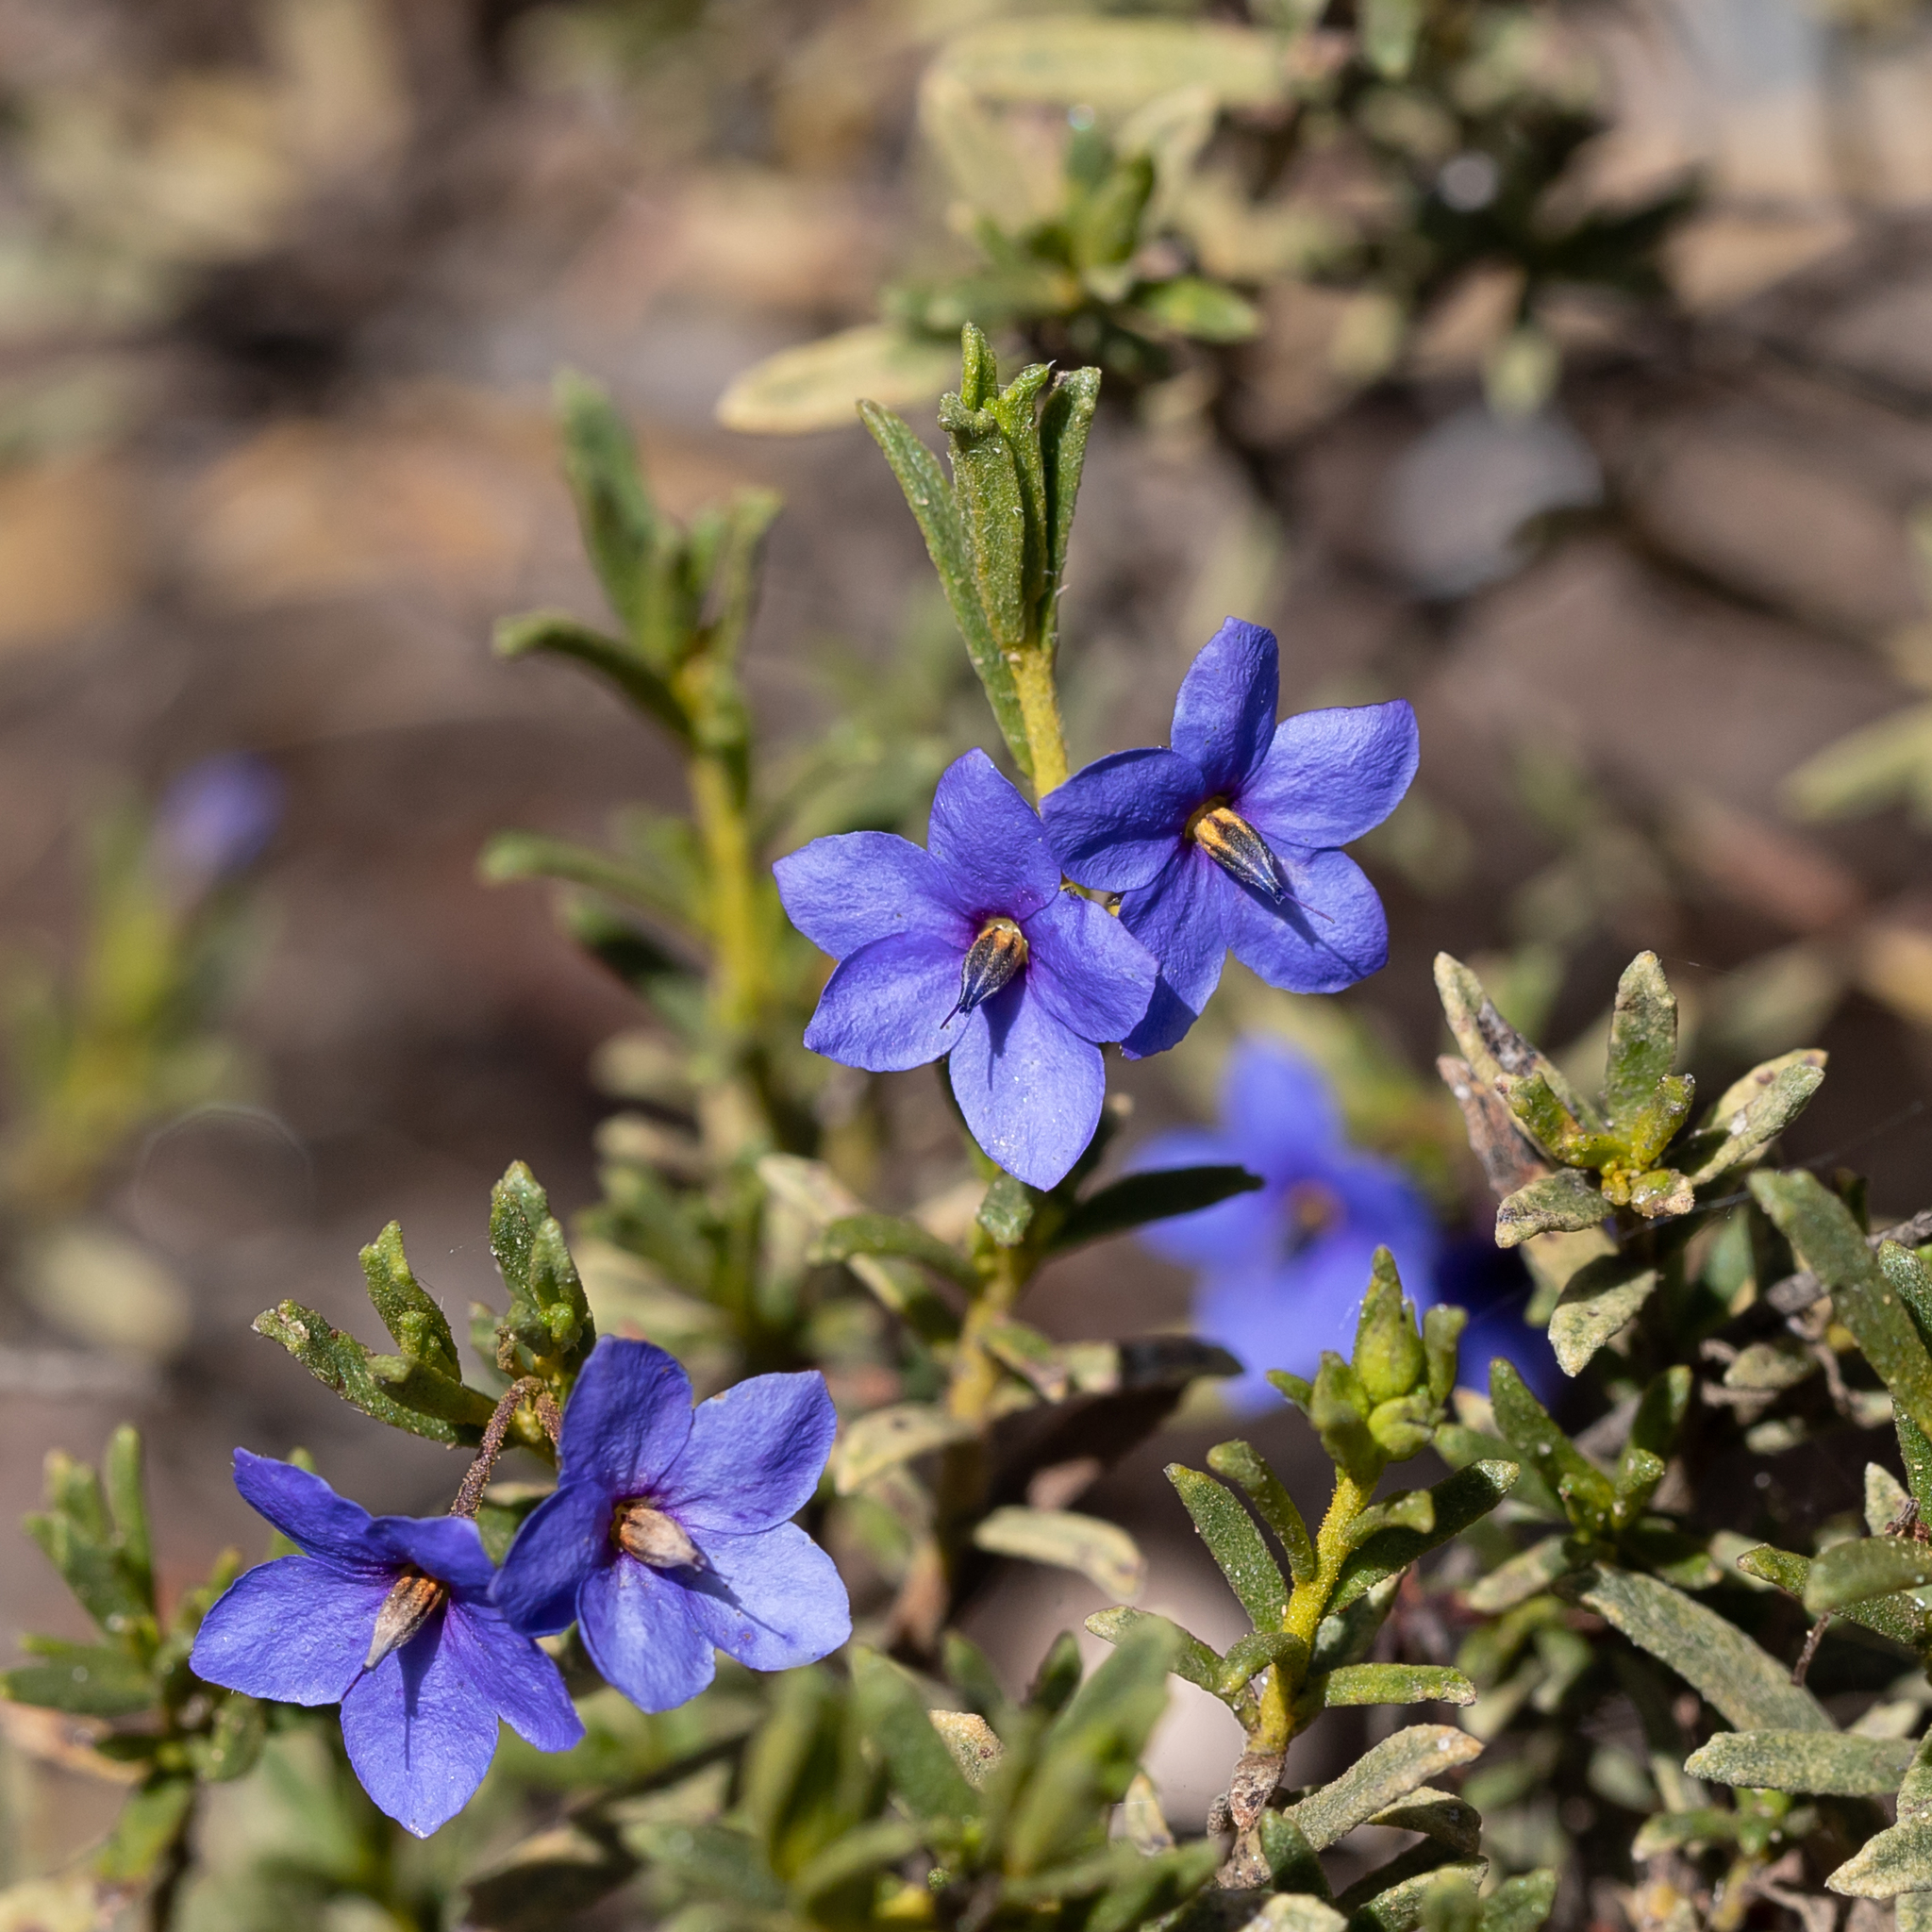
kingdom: Plantae
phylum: Tracheophyta
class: Magnoliopsida
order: Boraginales
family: Ehretiaceae
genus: Halgania
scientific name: Halgania cyanea
